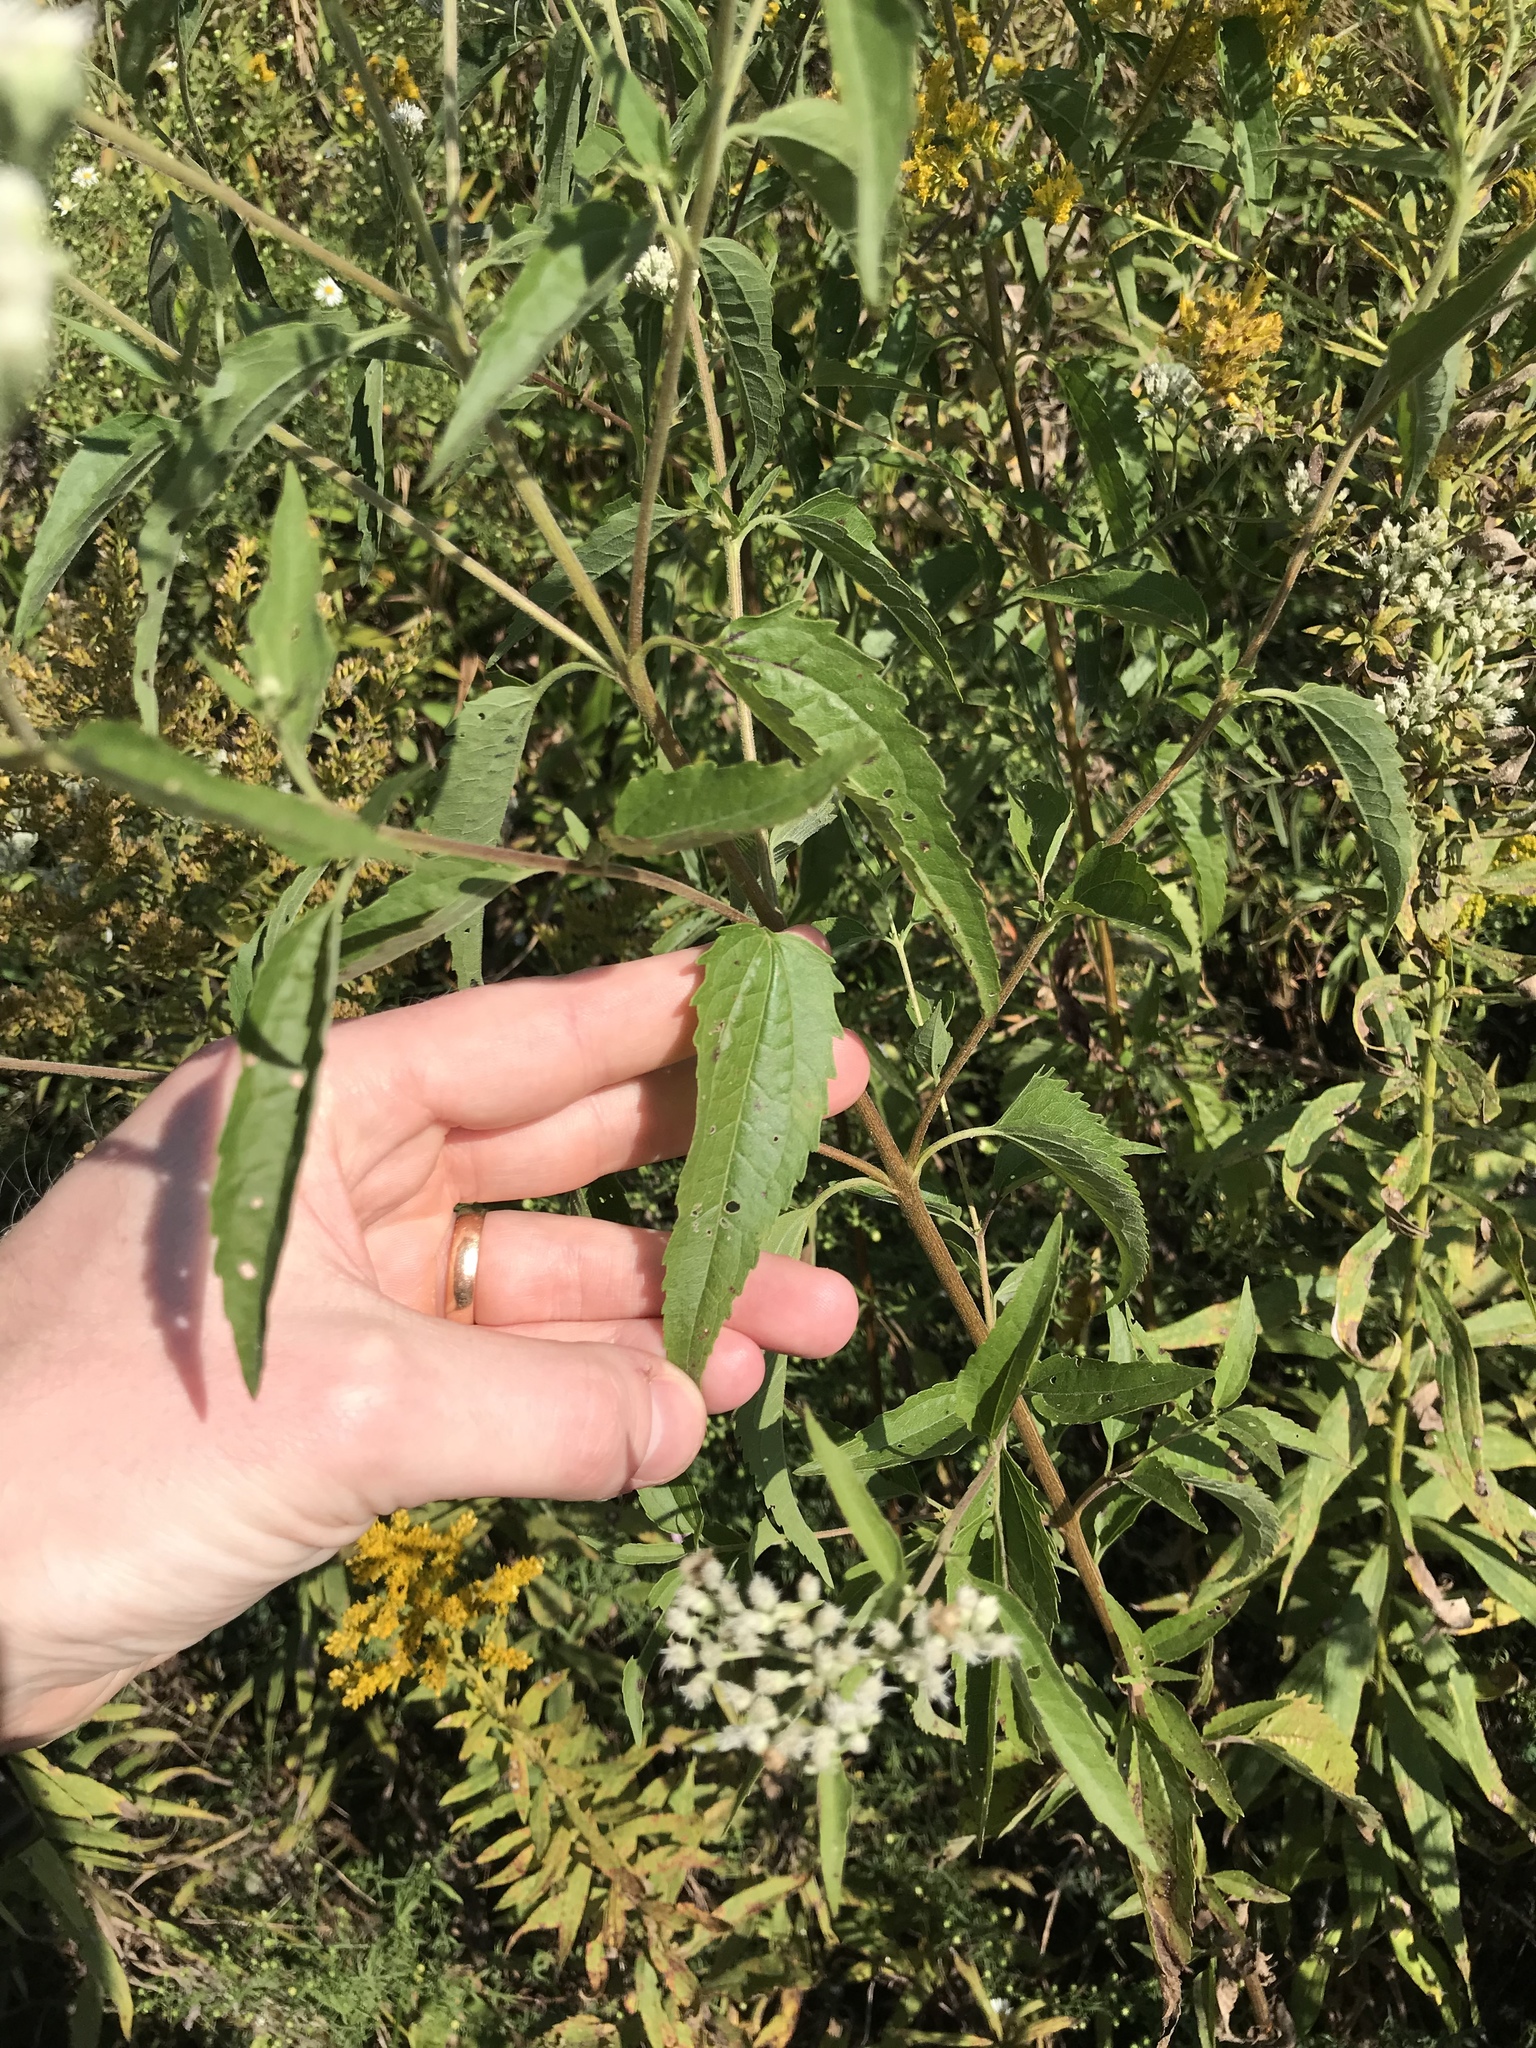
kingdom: Plantae
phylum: Tracheophyta
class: Magnoliopsida
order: Asterales
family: Asteraceae
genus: Eupatorium
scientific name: Eupatorium serotinum
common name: Late boneset
